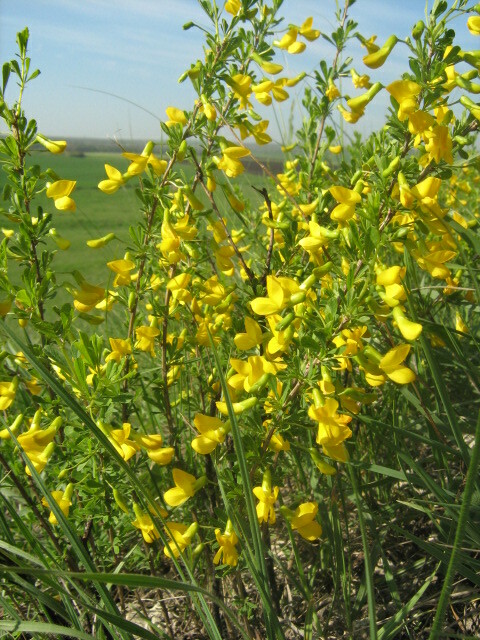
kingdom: Plantae
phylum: Tracheophyta
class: Magnoliopsida
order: Fabales
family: Fabaceae
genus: Caragana
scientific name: Caragana frutex
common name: Russian peashrub
